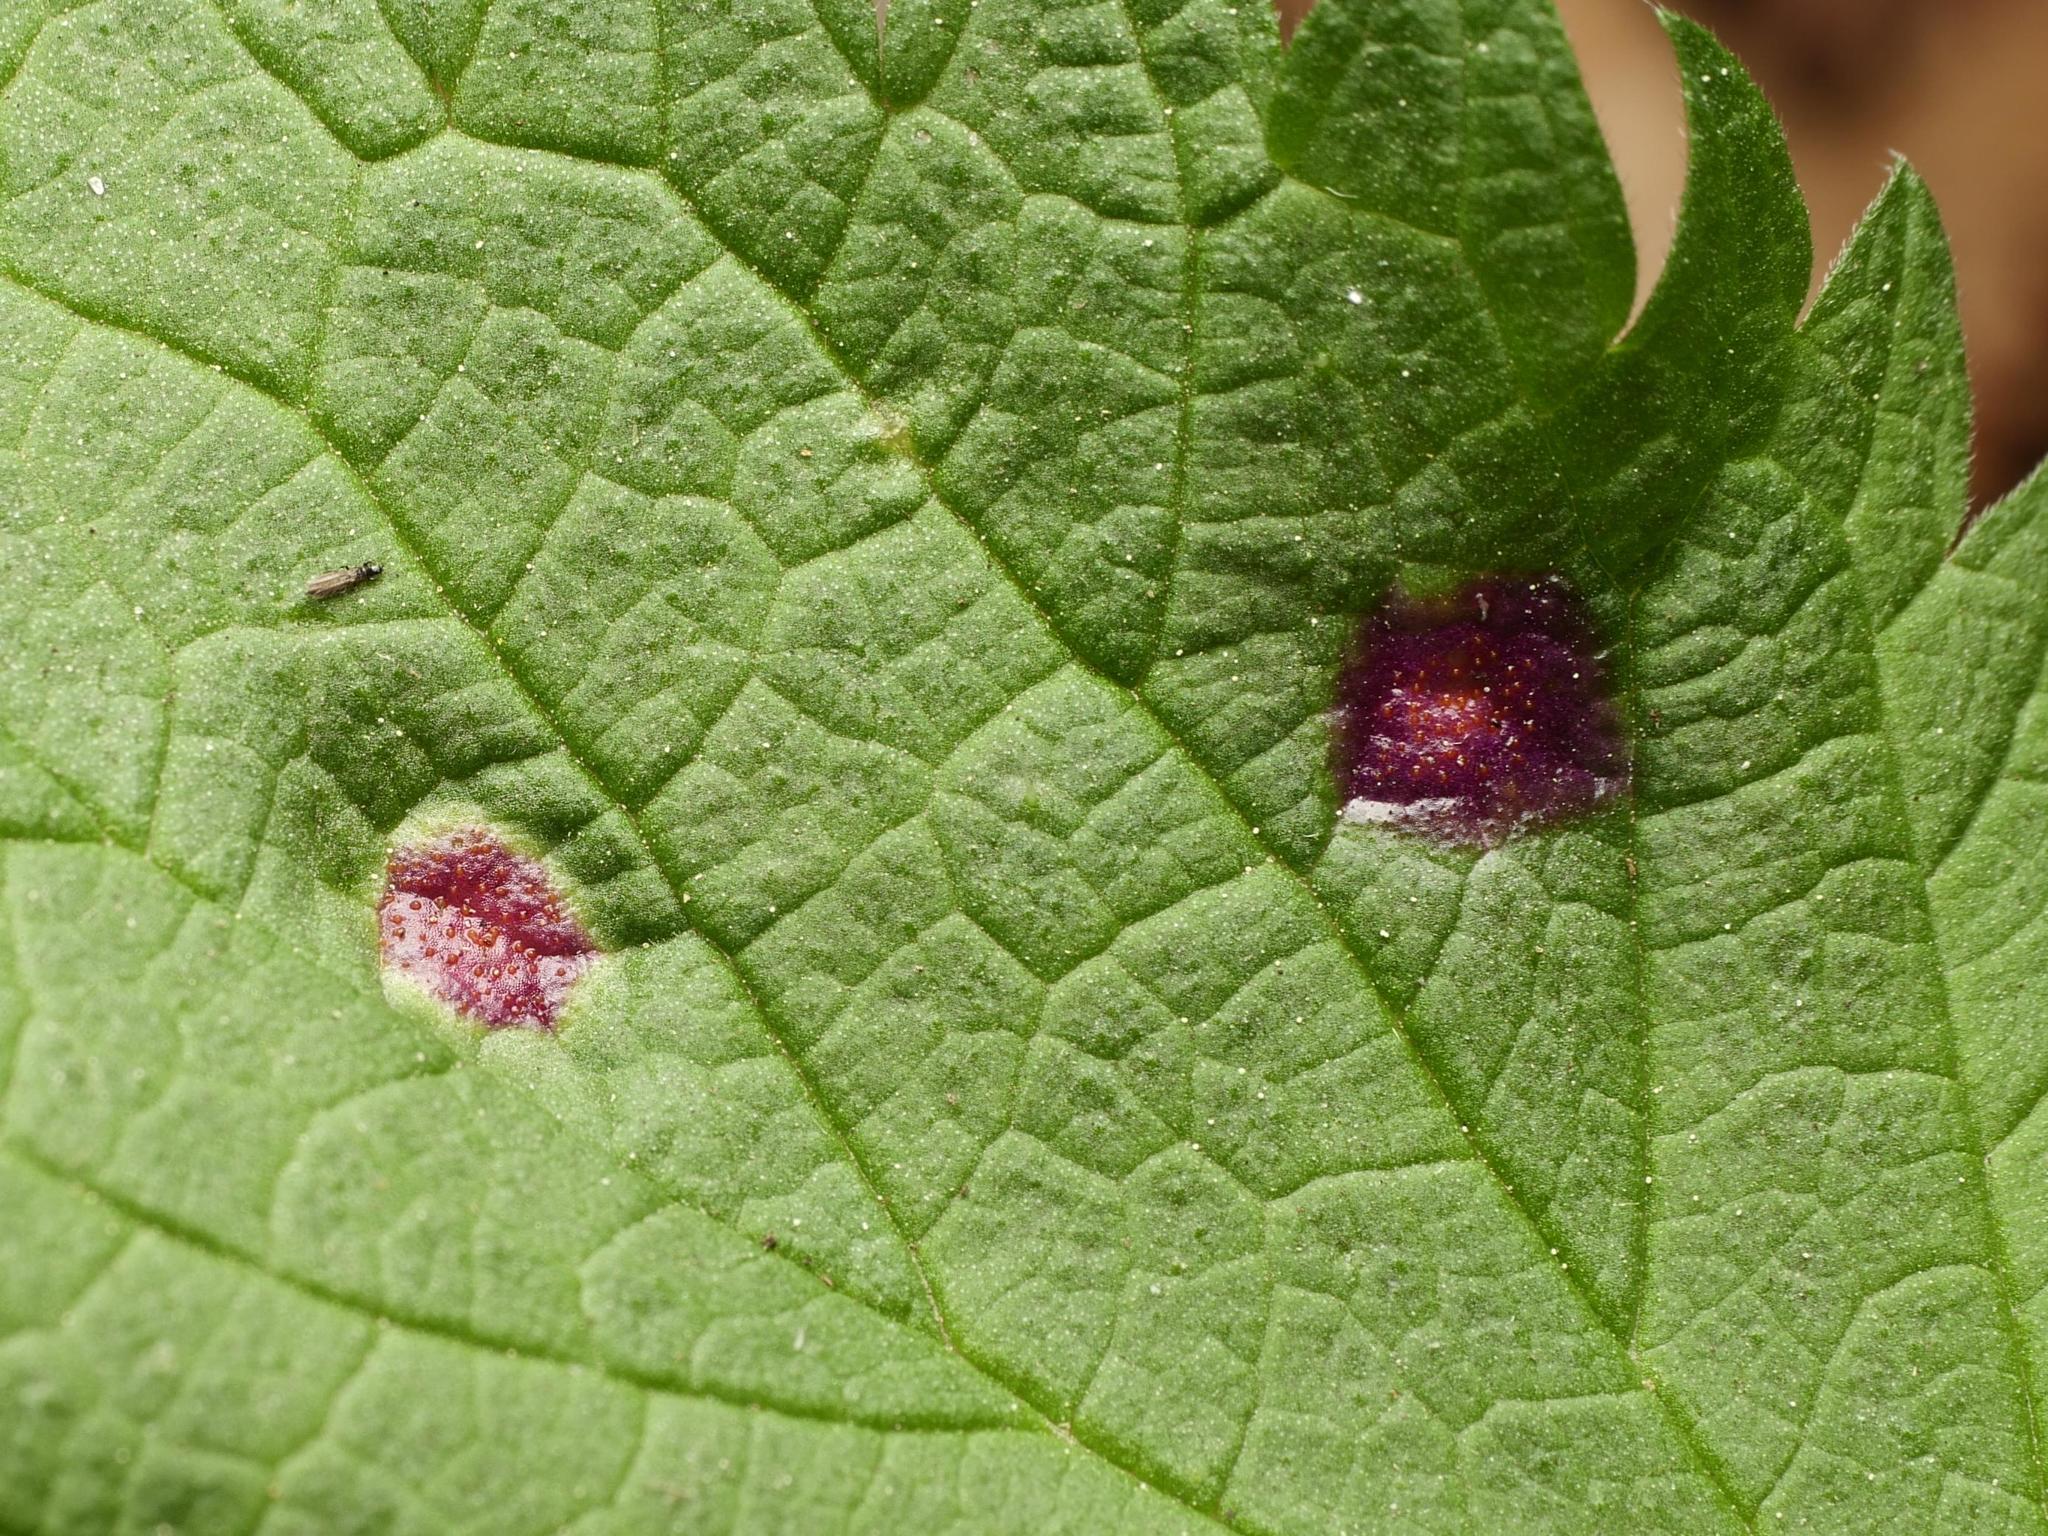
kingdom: Fungi
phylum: Basidiomycota
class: Pucciniomycetes
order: Pucciniales
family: Pucciniaceae
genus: Puccinia
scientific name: Puccinia urticata
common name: Nettle clustercup rust fungus
